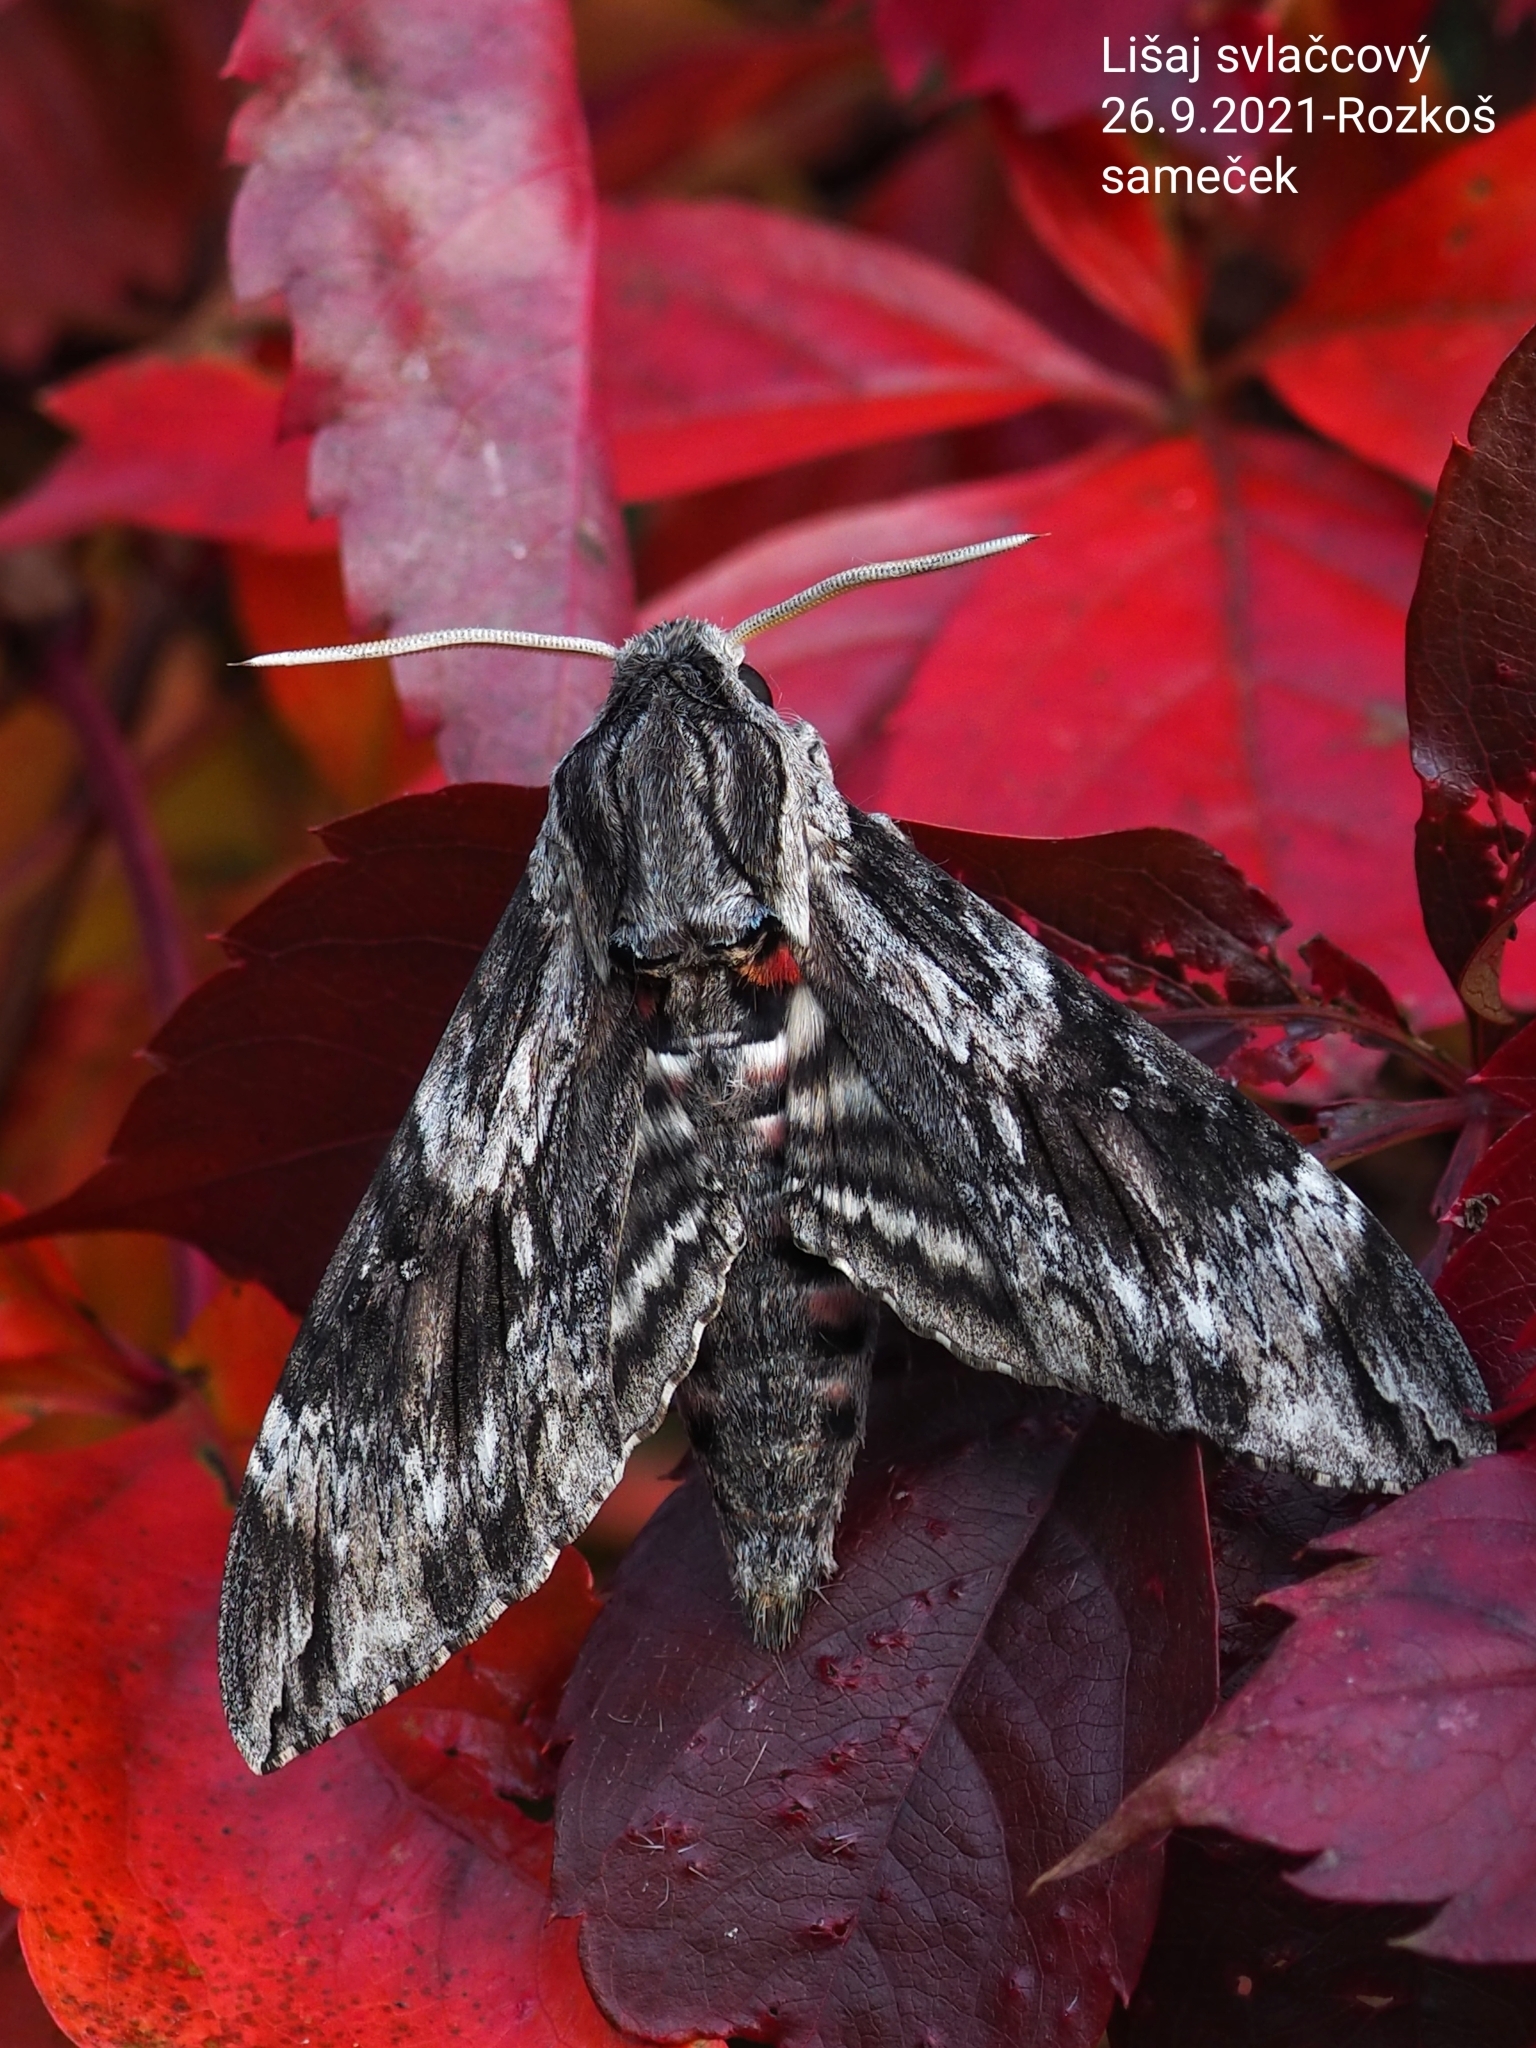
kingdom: Animalia
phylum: Arthropoda
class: Insecta
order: Lepidoptera
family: Sphingidae
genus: Agrius
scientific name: Agrius convolvuli
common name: Convolvulus hawkmoth
